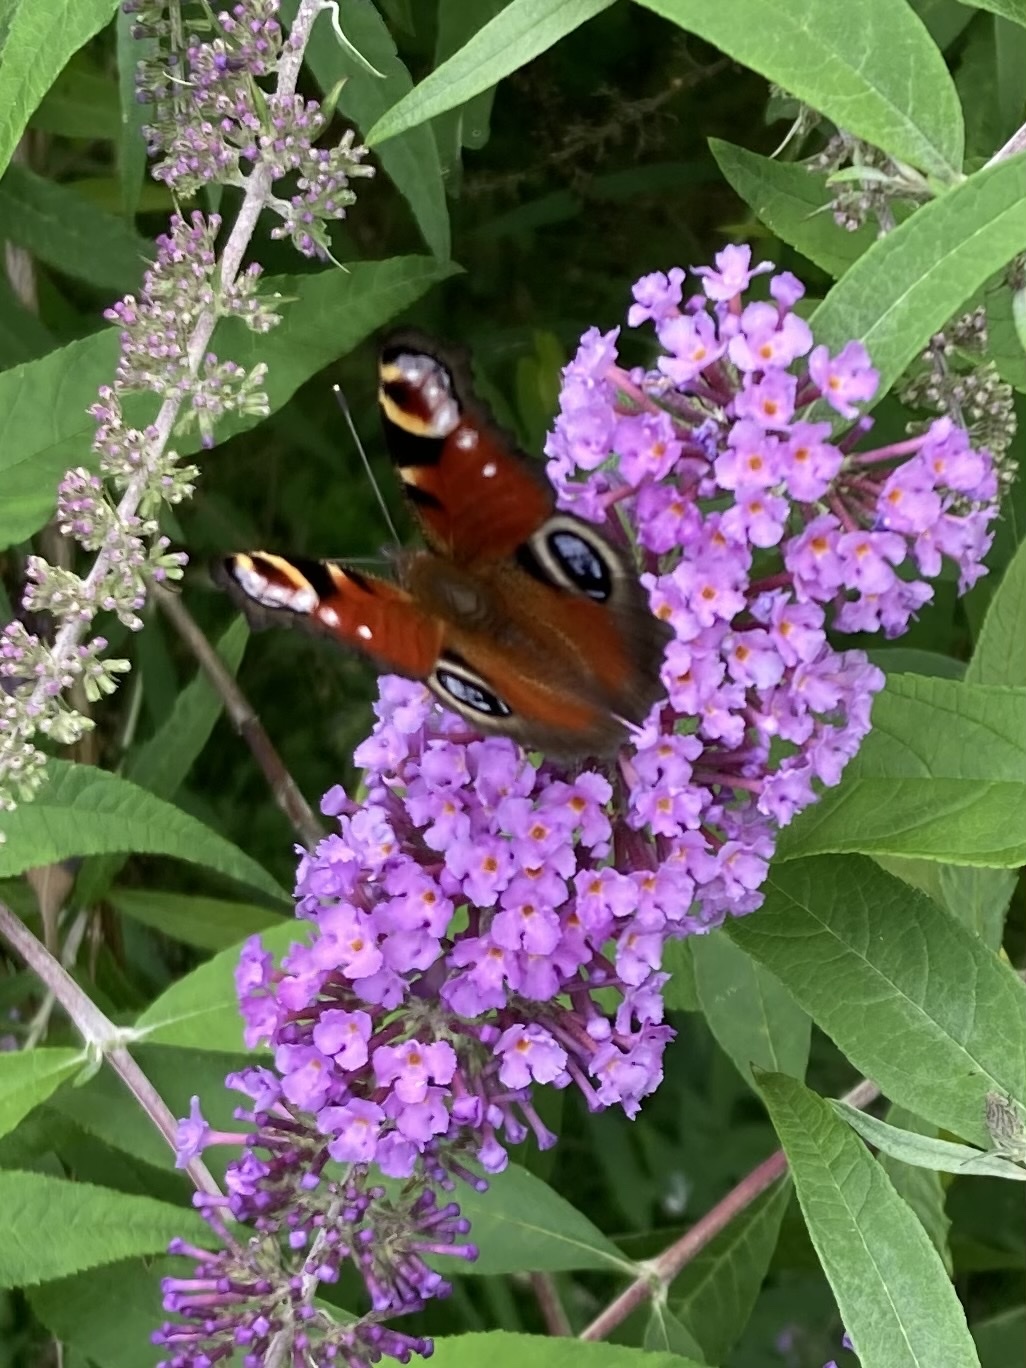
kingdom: Animalia
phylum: Arthropoda
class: Insecta
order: Lepidoptera
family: Nymphalidae
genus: Aglais
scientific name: Aglais io
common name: Peacock
